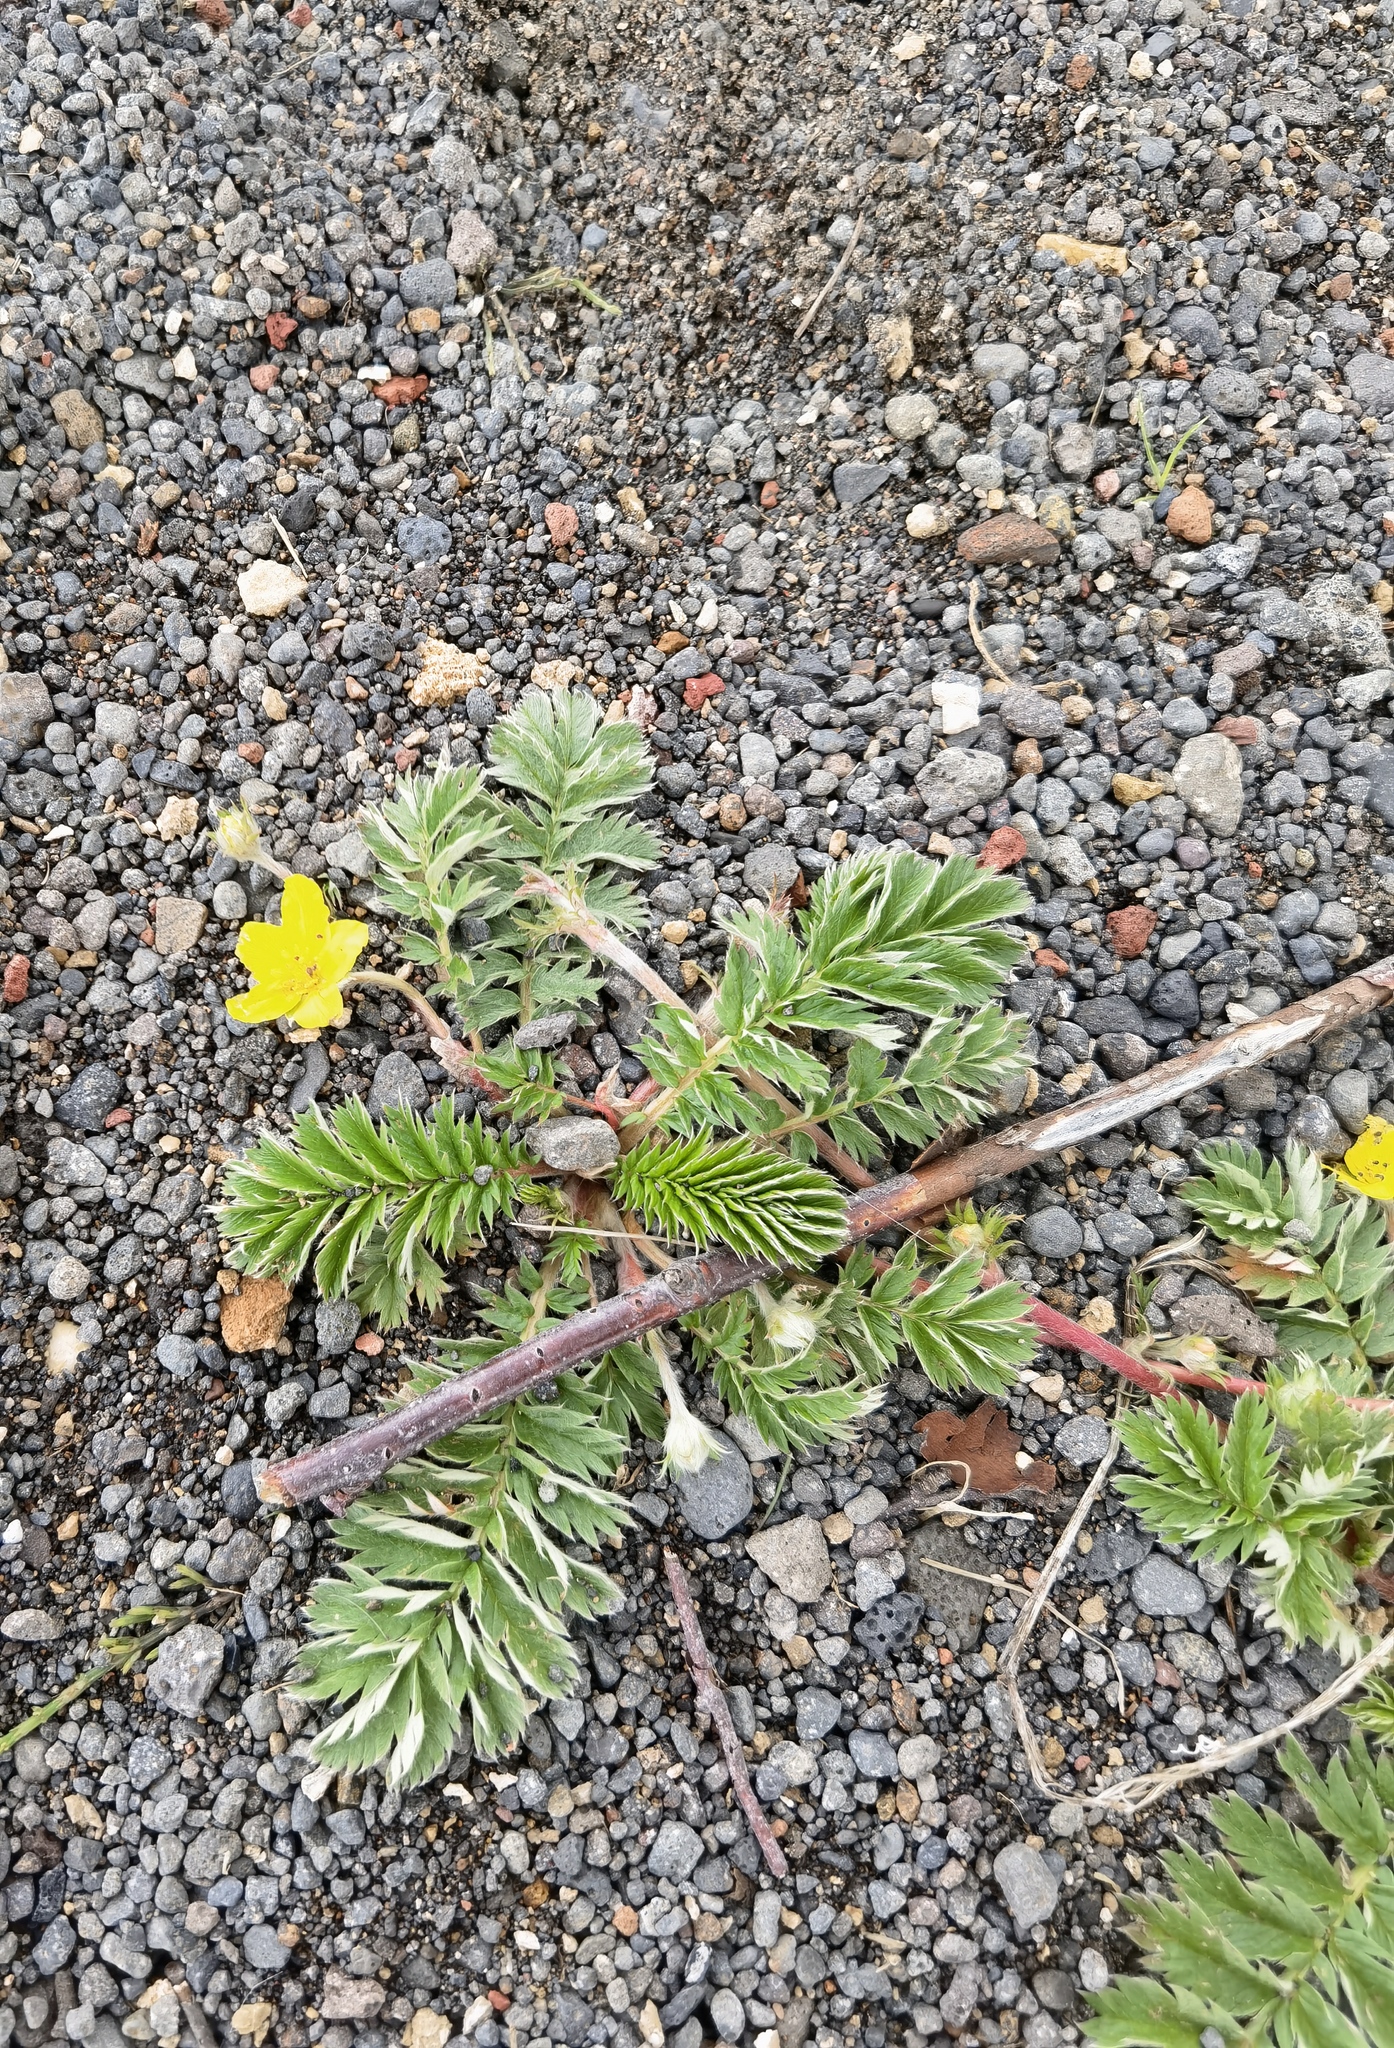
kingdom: Plantae
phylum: Tracheophyta
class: Magnoliopsida
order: Rosales
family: Rosaceae
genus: Argentina
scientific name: Argentina anserina
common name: Common silverweed
